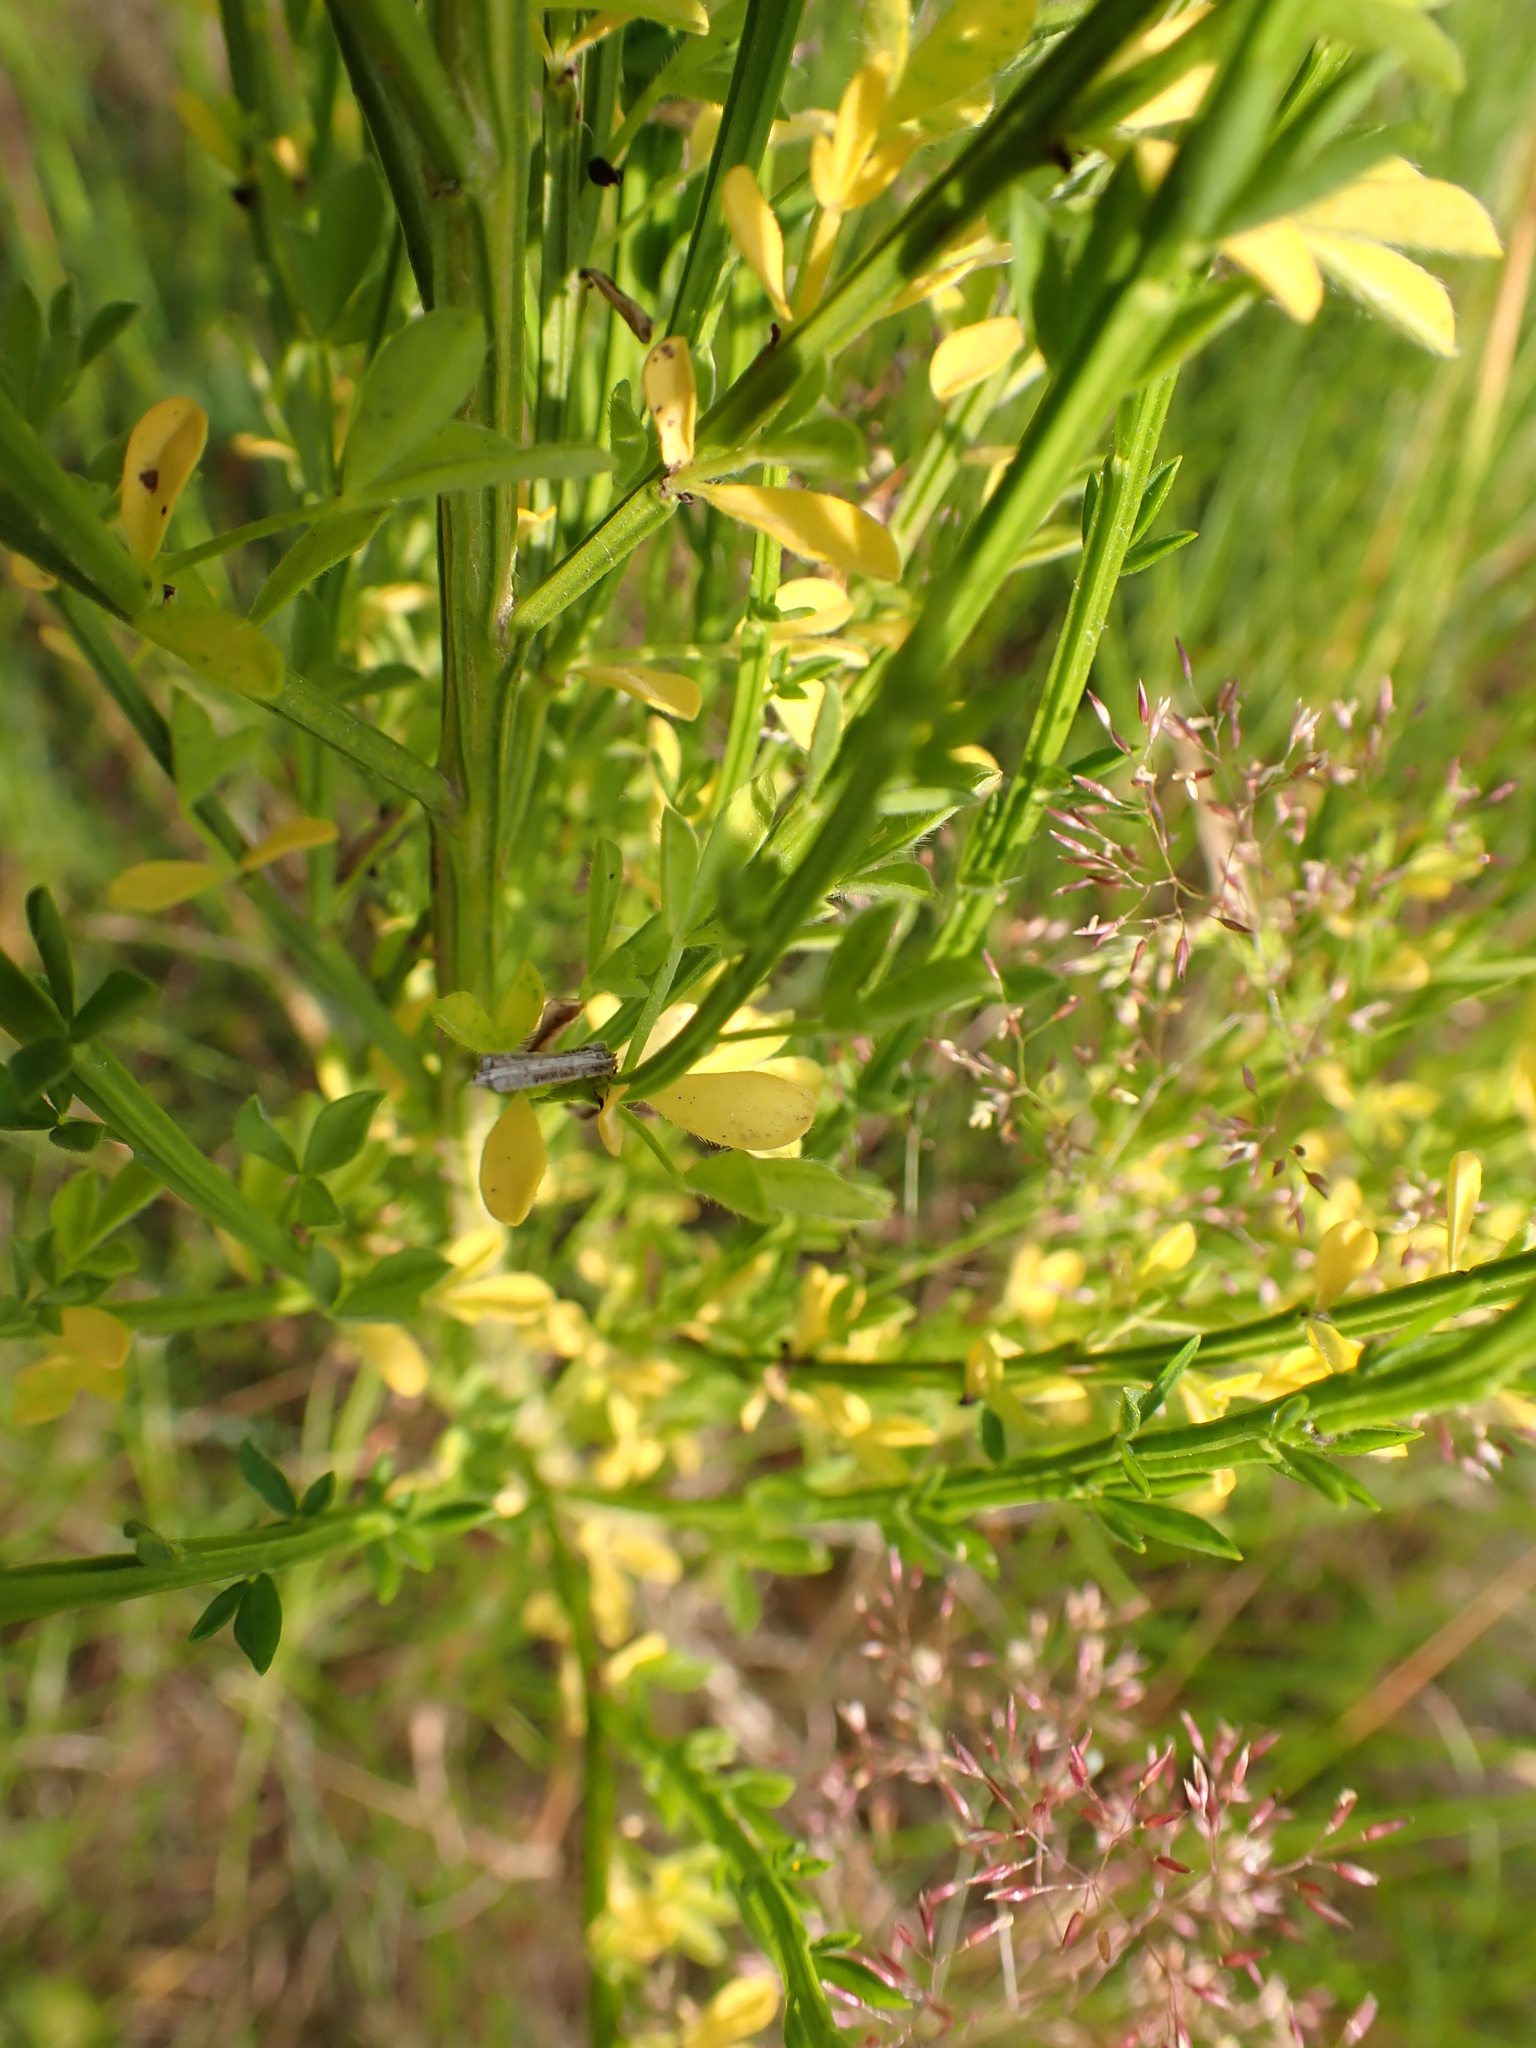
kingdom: Plantae
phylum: Tracheophyta
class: Magnoliopsida
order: Fabales
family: Fabaceae
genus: Cytisus
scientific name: Cytisus scoparius
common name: Scotch broom
